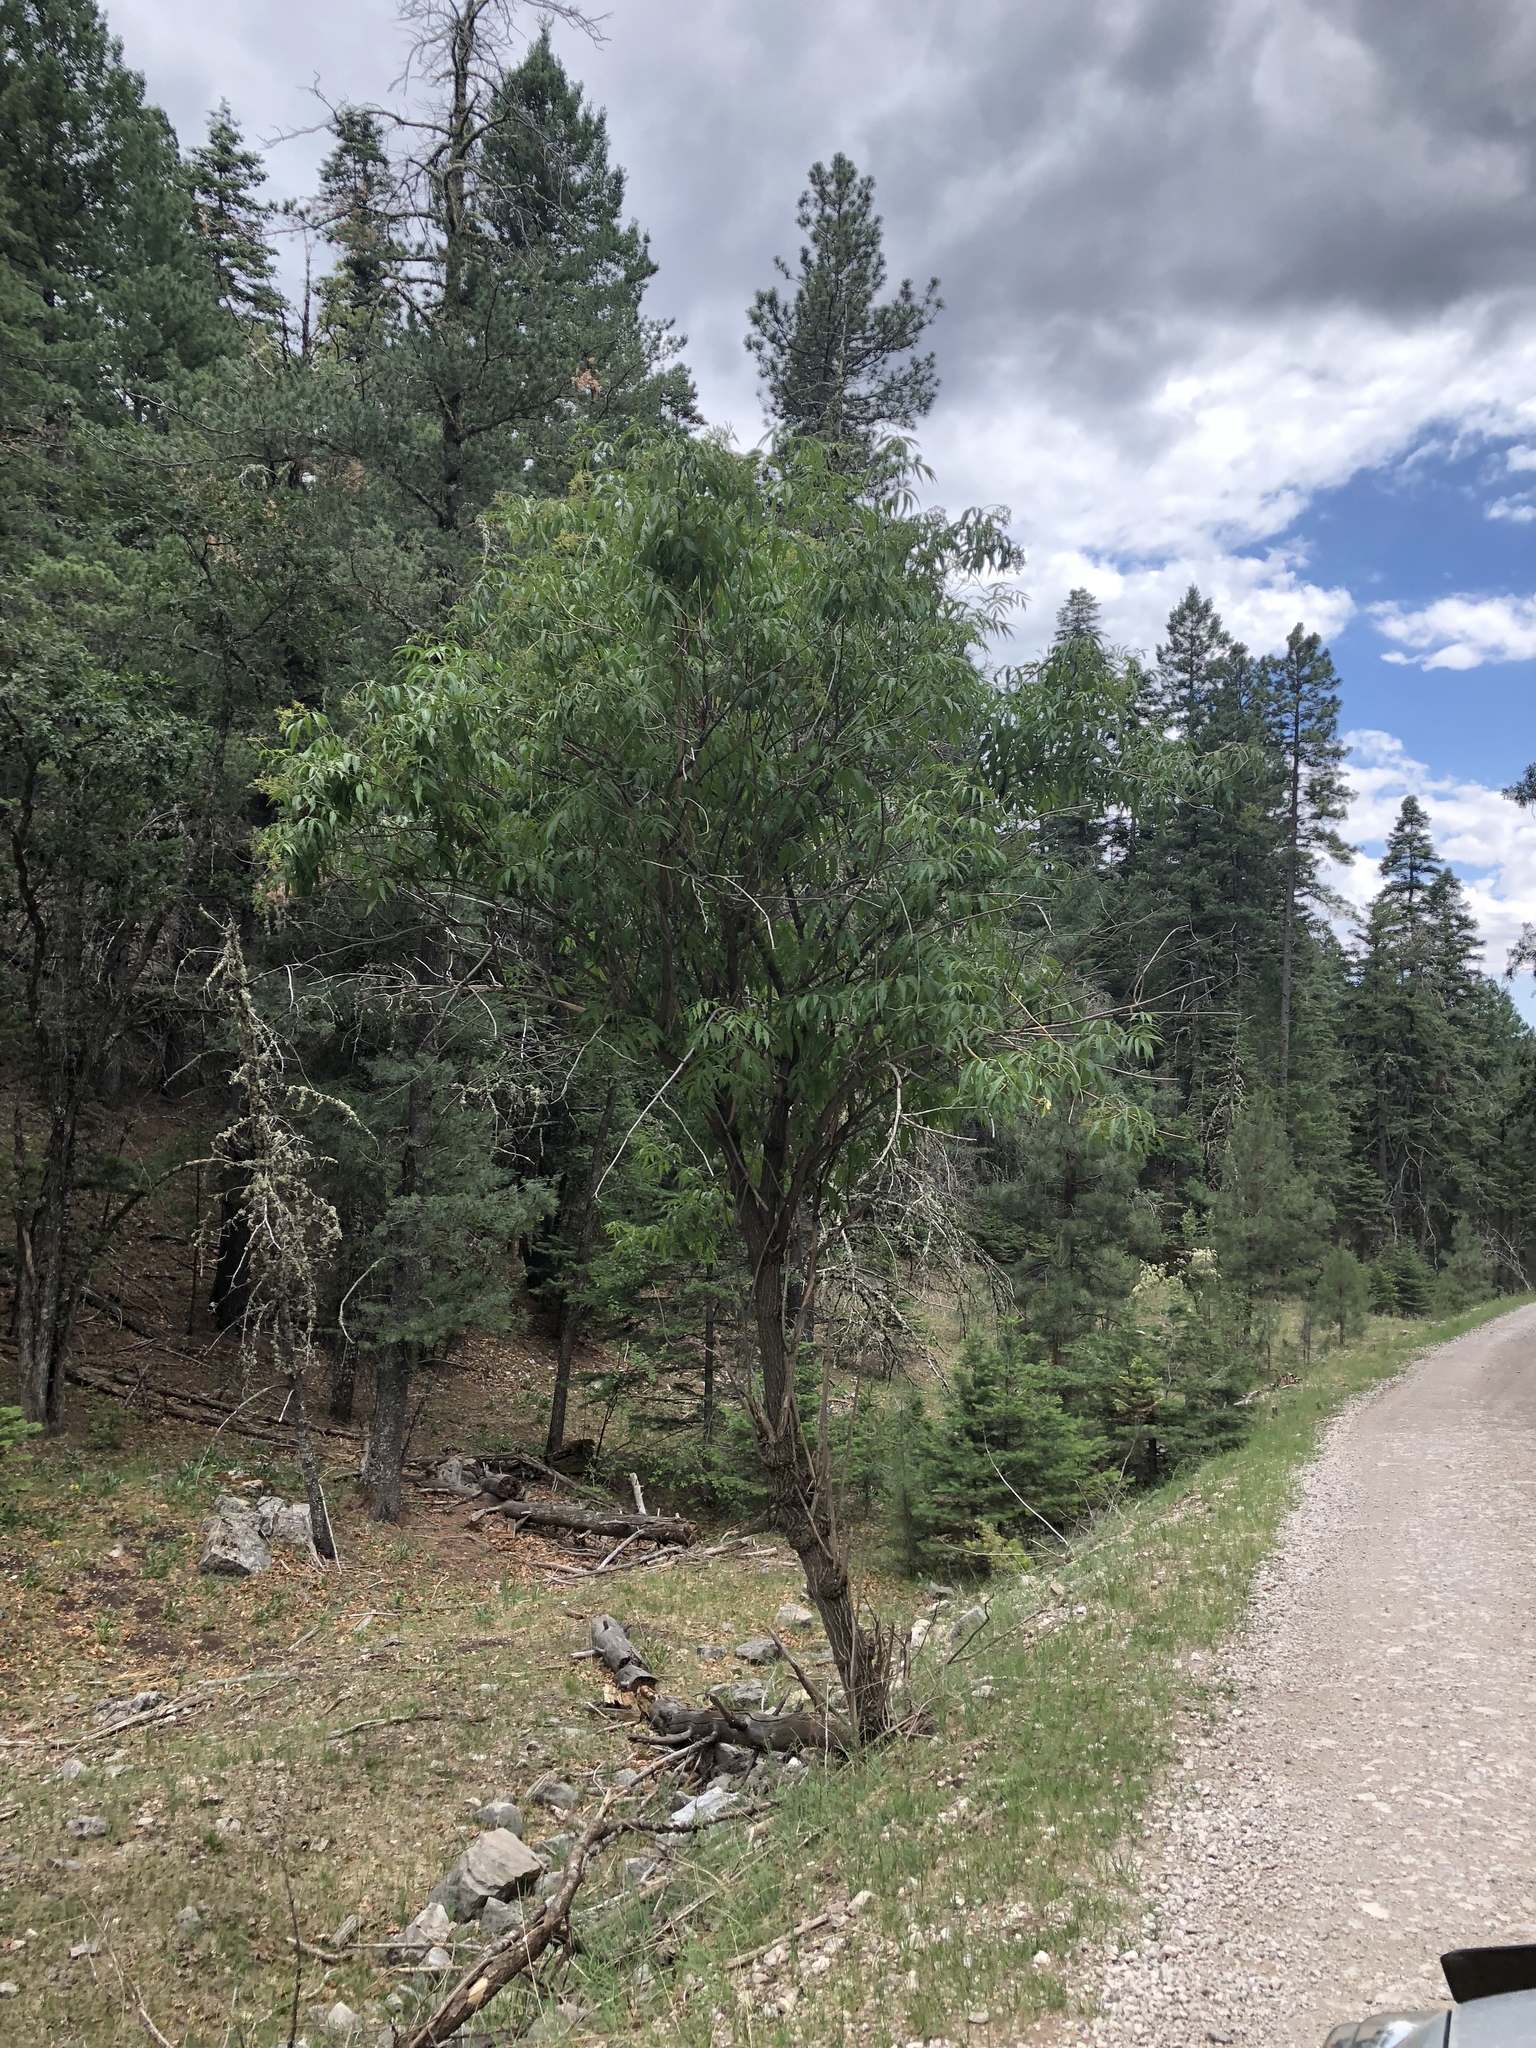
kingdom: Plantae
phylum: Tracheophyta
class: Magnoliopsida
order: Dipsacales
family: Viburnaceae
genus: Sambucus
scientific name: Sambucus cerulea
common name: Blue elder
